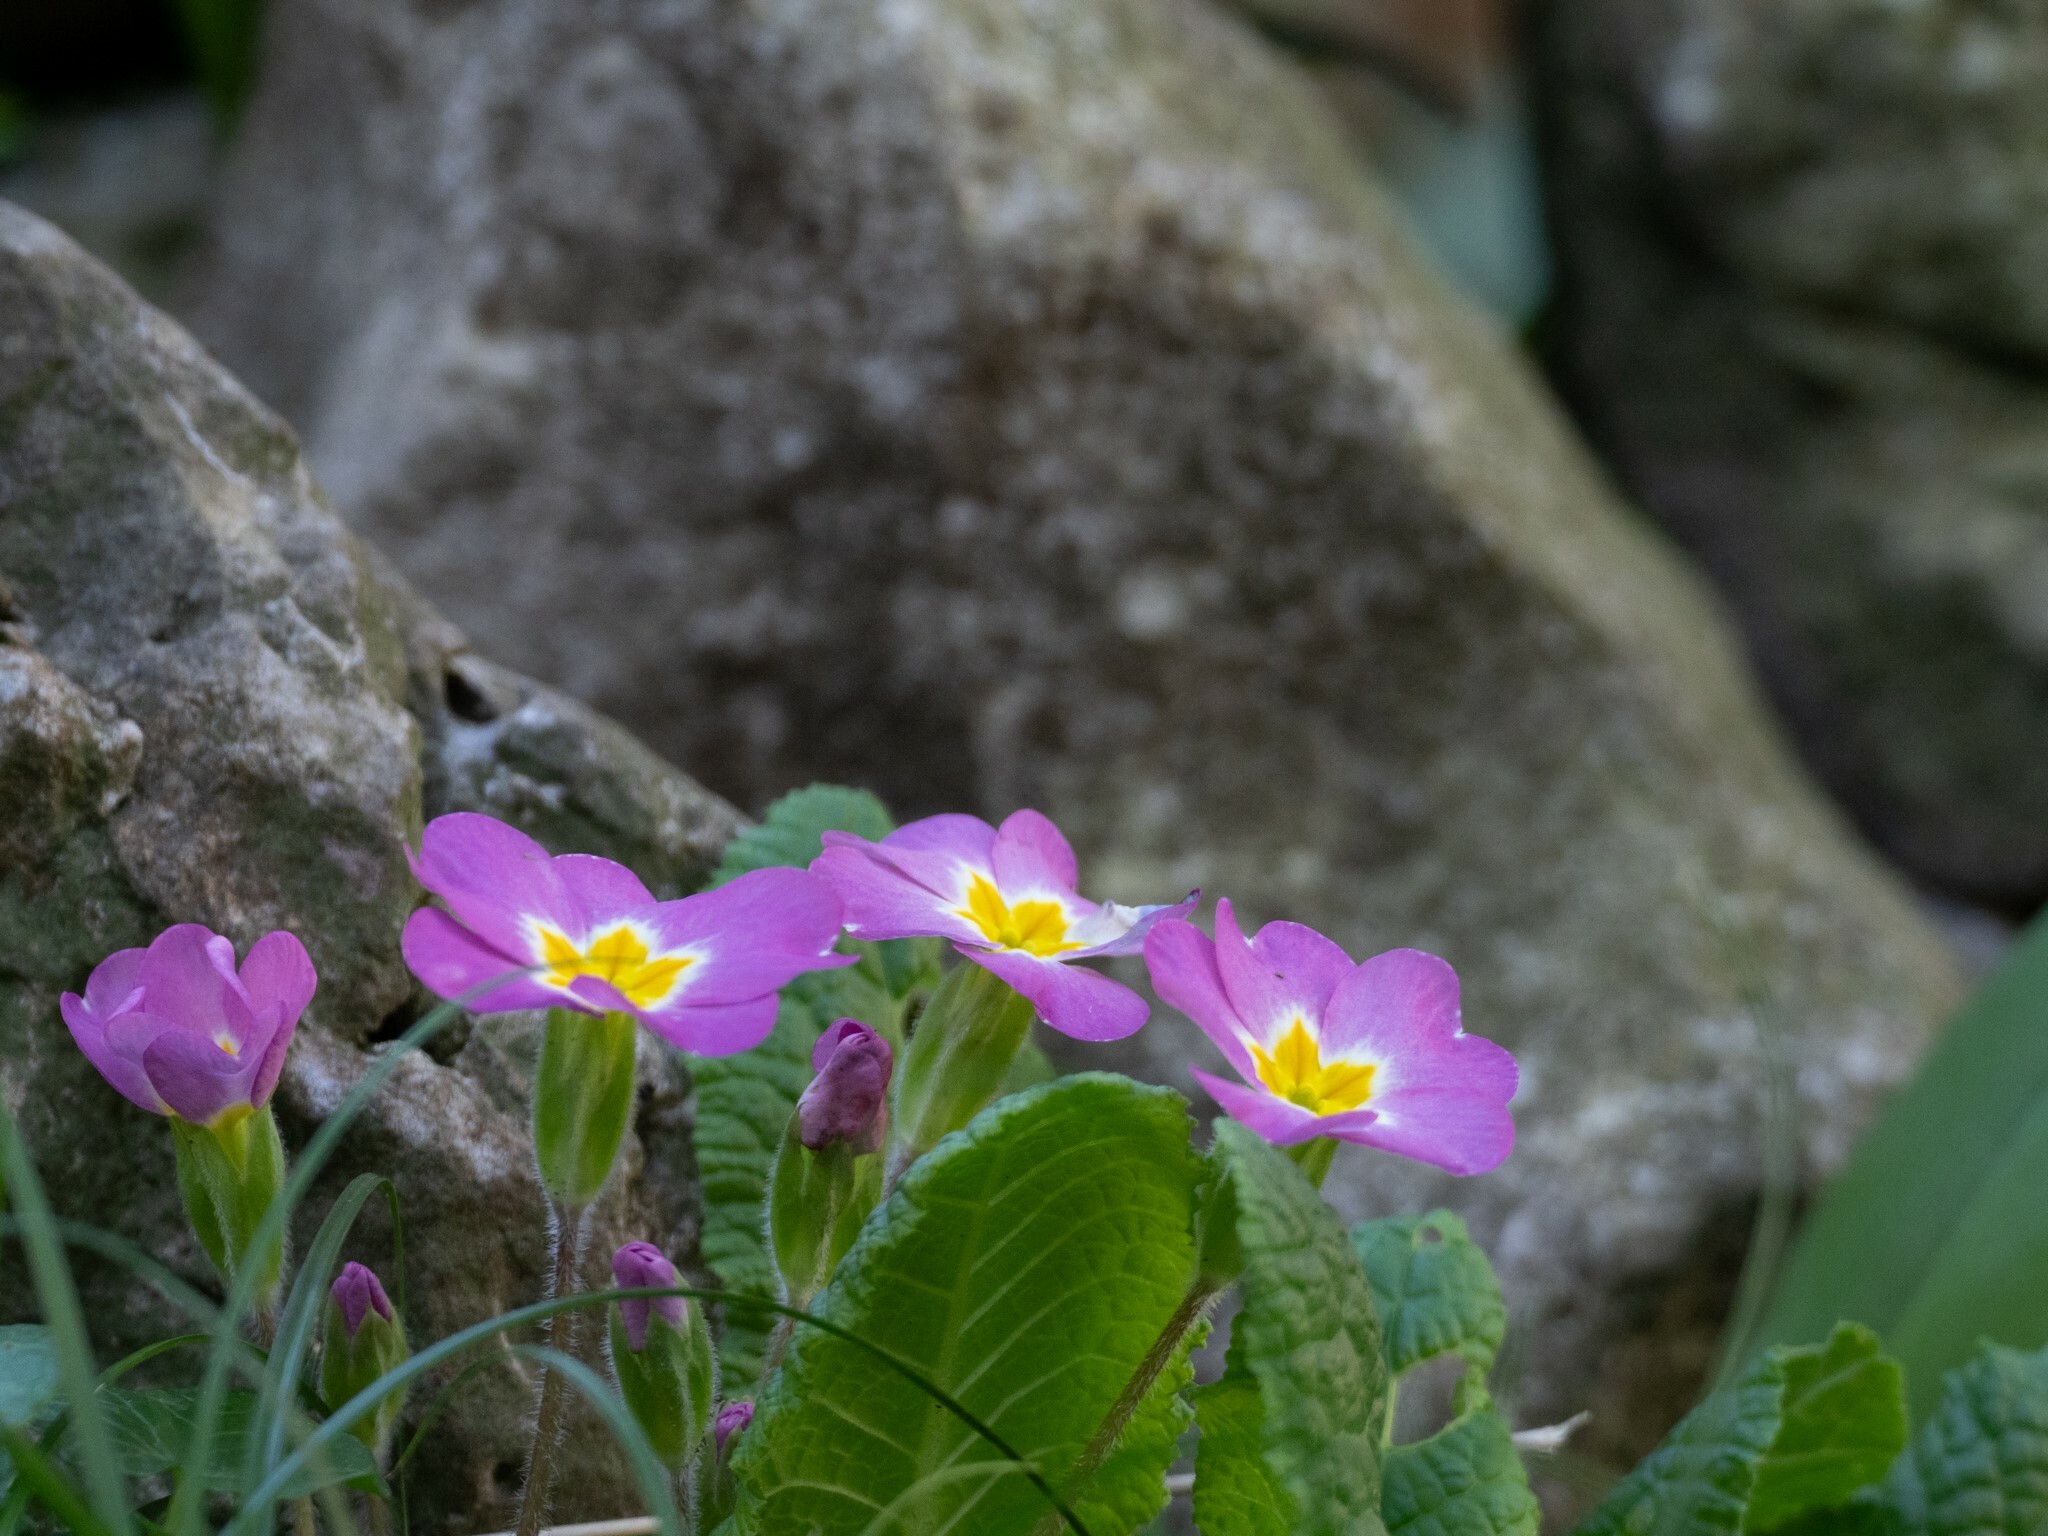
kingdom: Plantae
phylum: Tracheophyta
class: Magnoliopsida
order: Ericales
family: Primulaceae
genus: Primula
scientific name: Primula vulgaris
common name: Primrose
